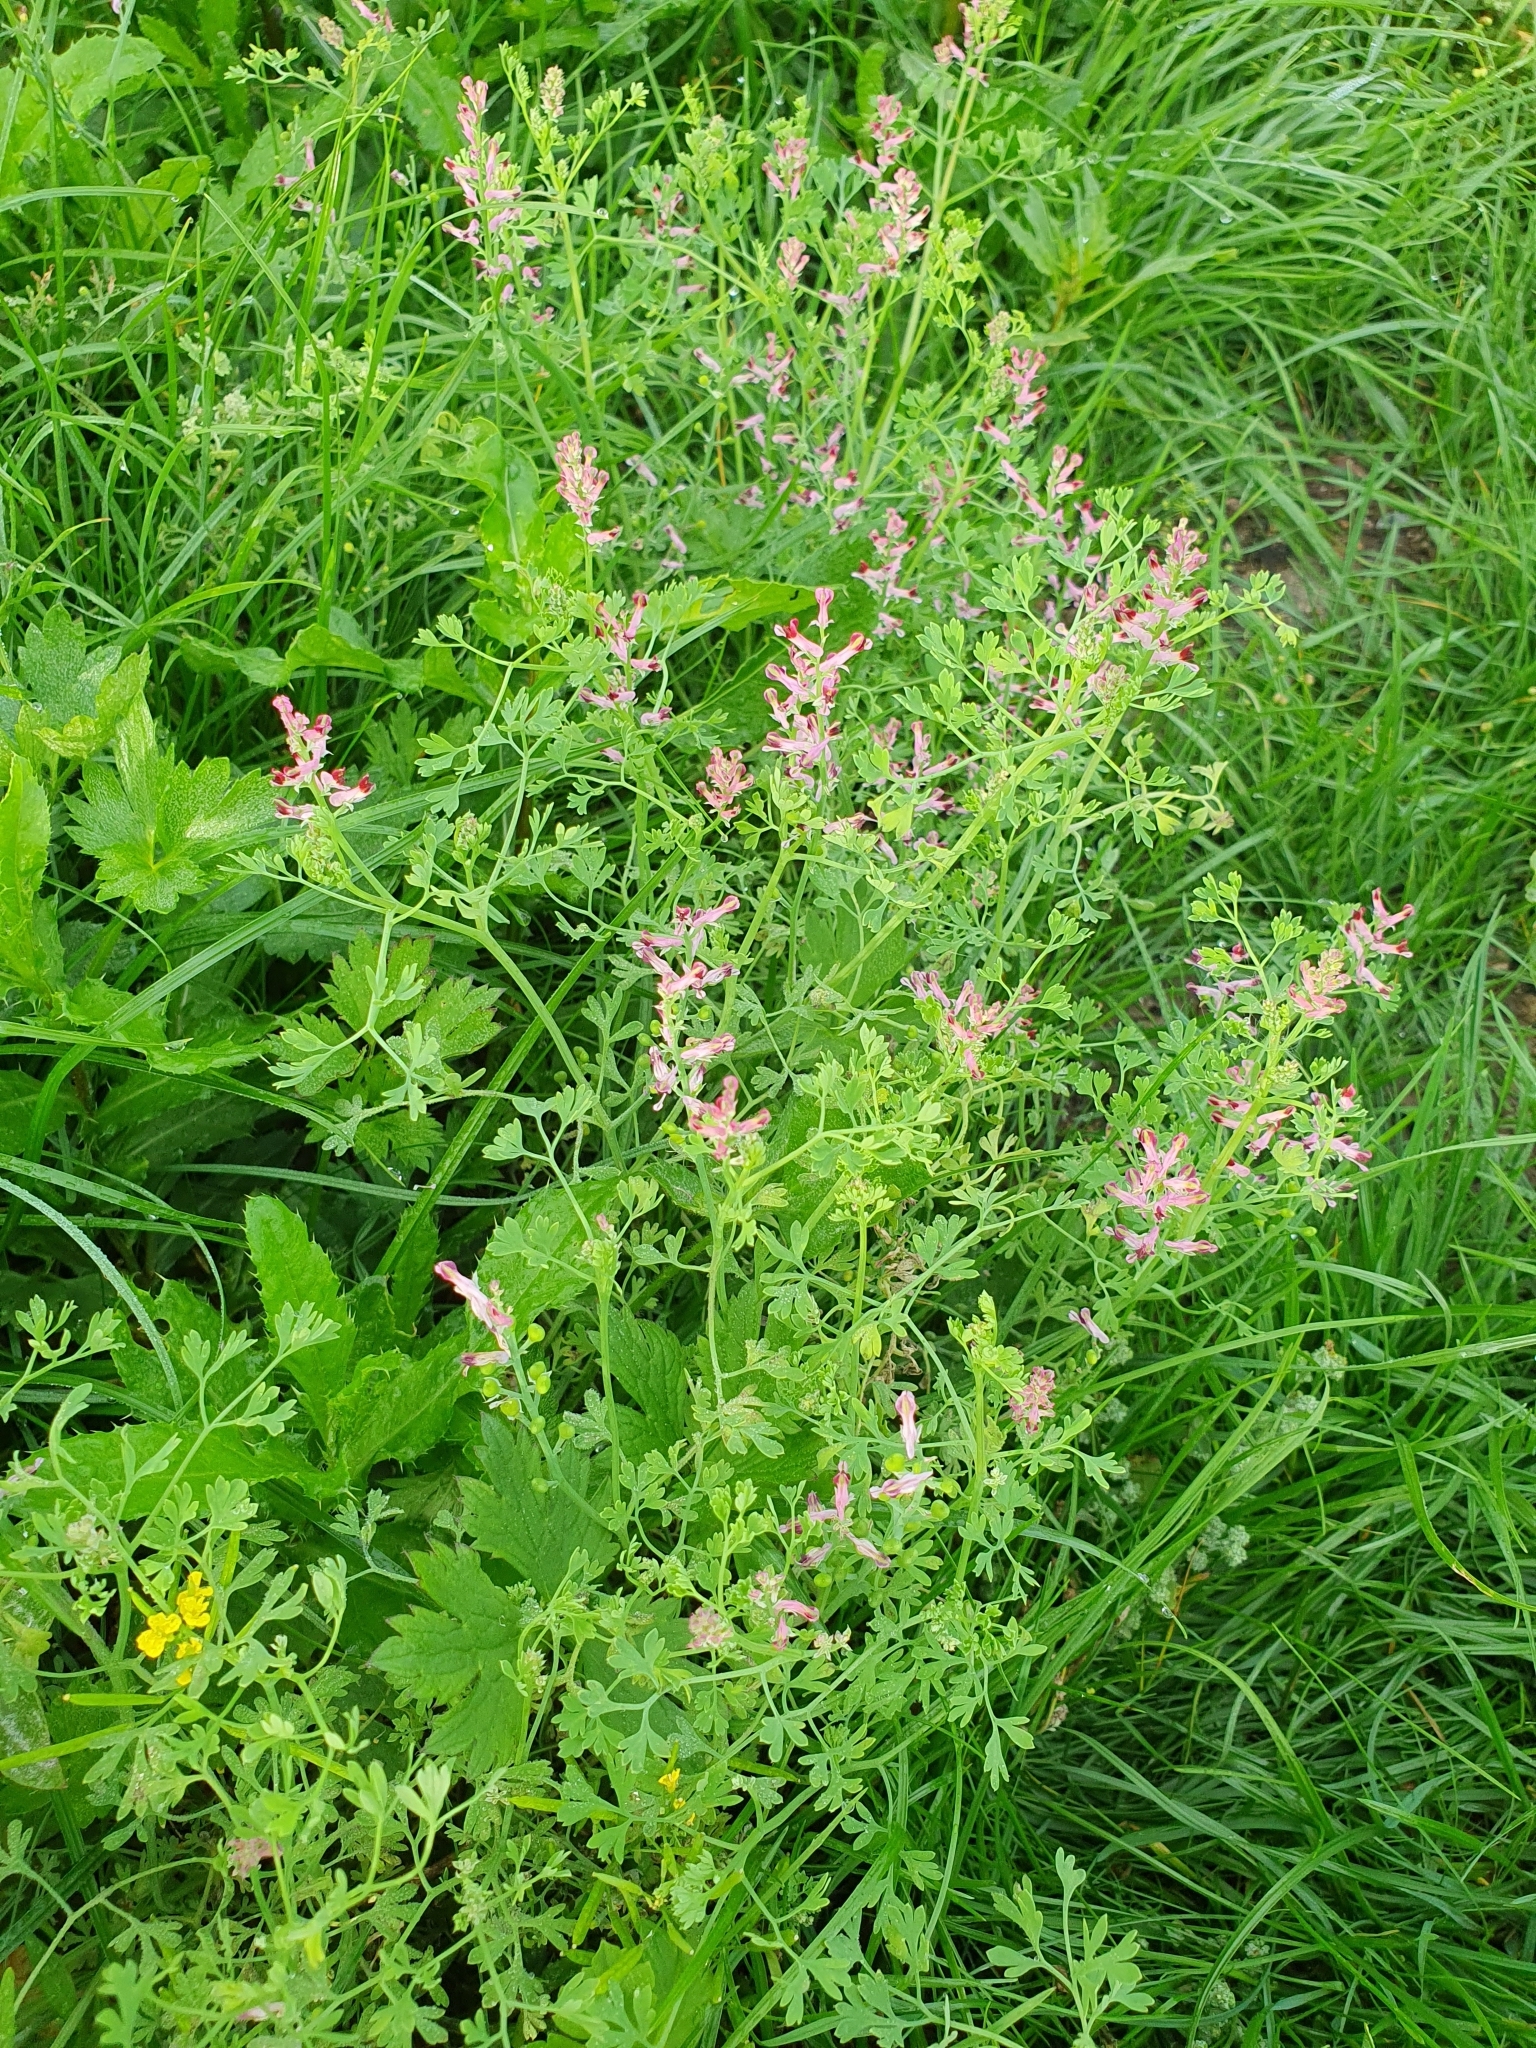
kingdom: Plantae
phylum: Tracheophyta
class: Magnoliopsida
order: Ranunculales
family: Papaveraceae
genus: Fumaria
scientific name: Fumaria officinalis
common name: Common fumitory
